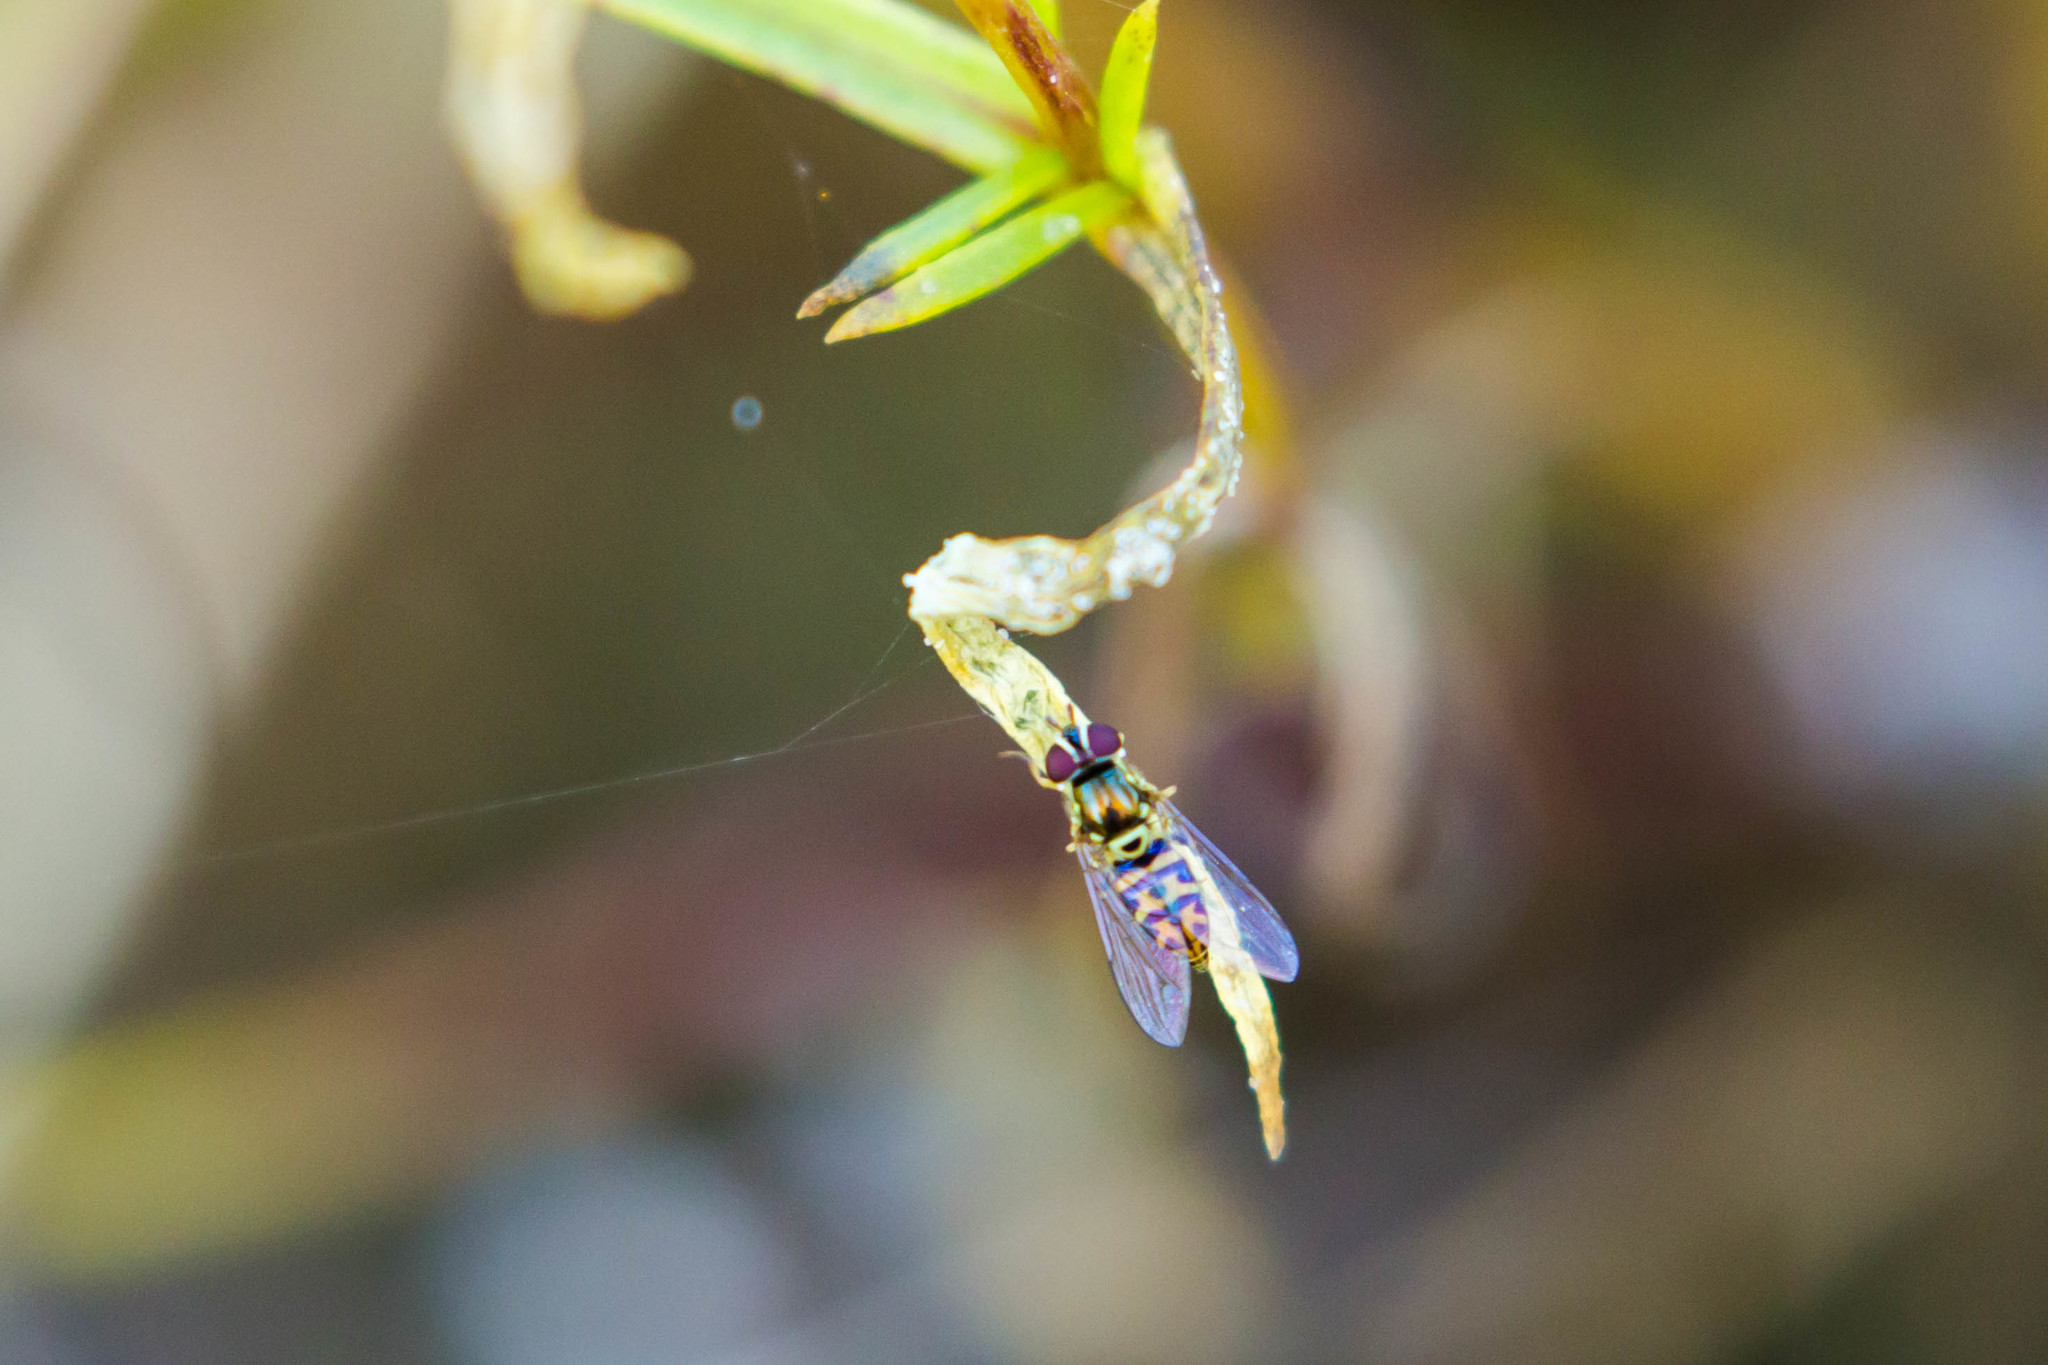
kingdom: Animalia
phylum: Arthropoda
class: Insecta
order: Diptera
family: Syrphidae
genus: Allograpta
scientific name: Allograpta radiata
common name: Syrphid fly
